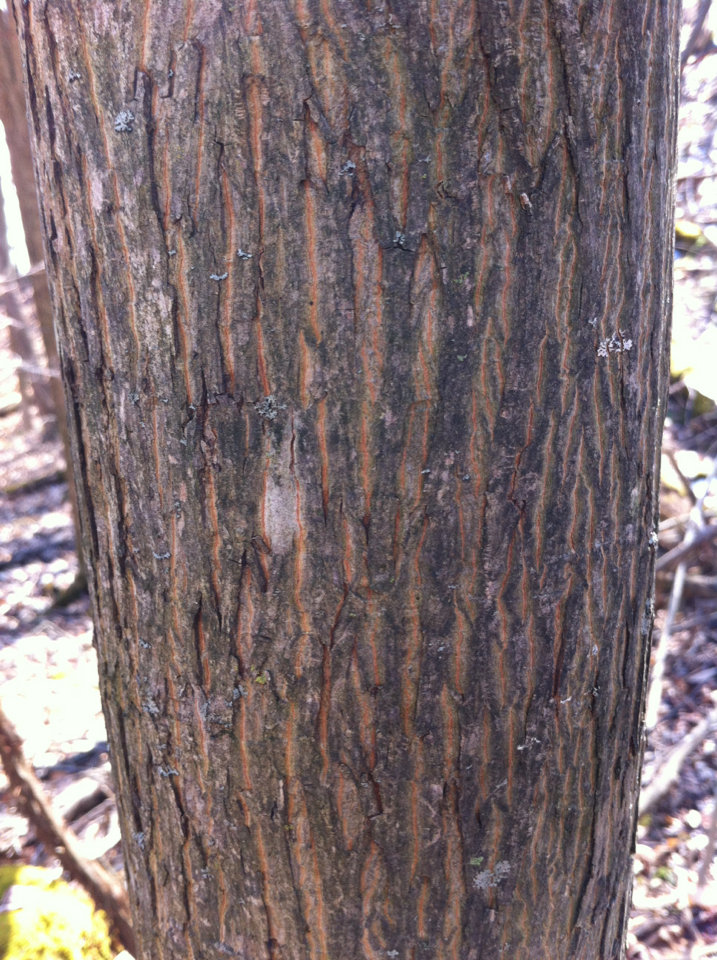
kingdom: Plantae
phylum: Tracheophyta
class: Magnoliopsida
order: Fagales
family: Juglandaceae
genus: Carya
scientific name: Carya cordiformis
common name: Bitternut hickory
